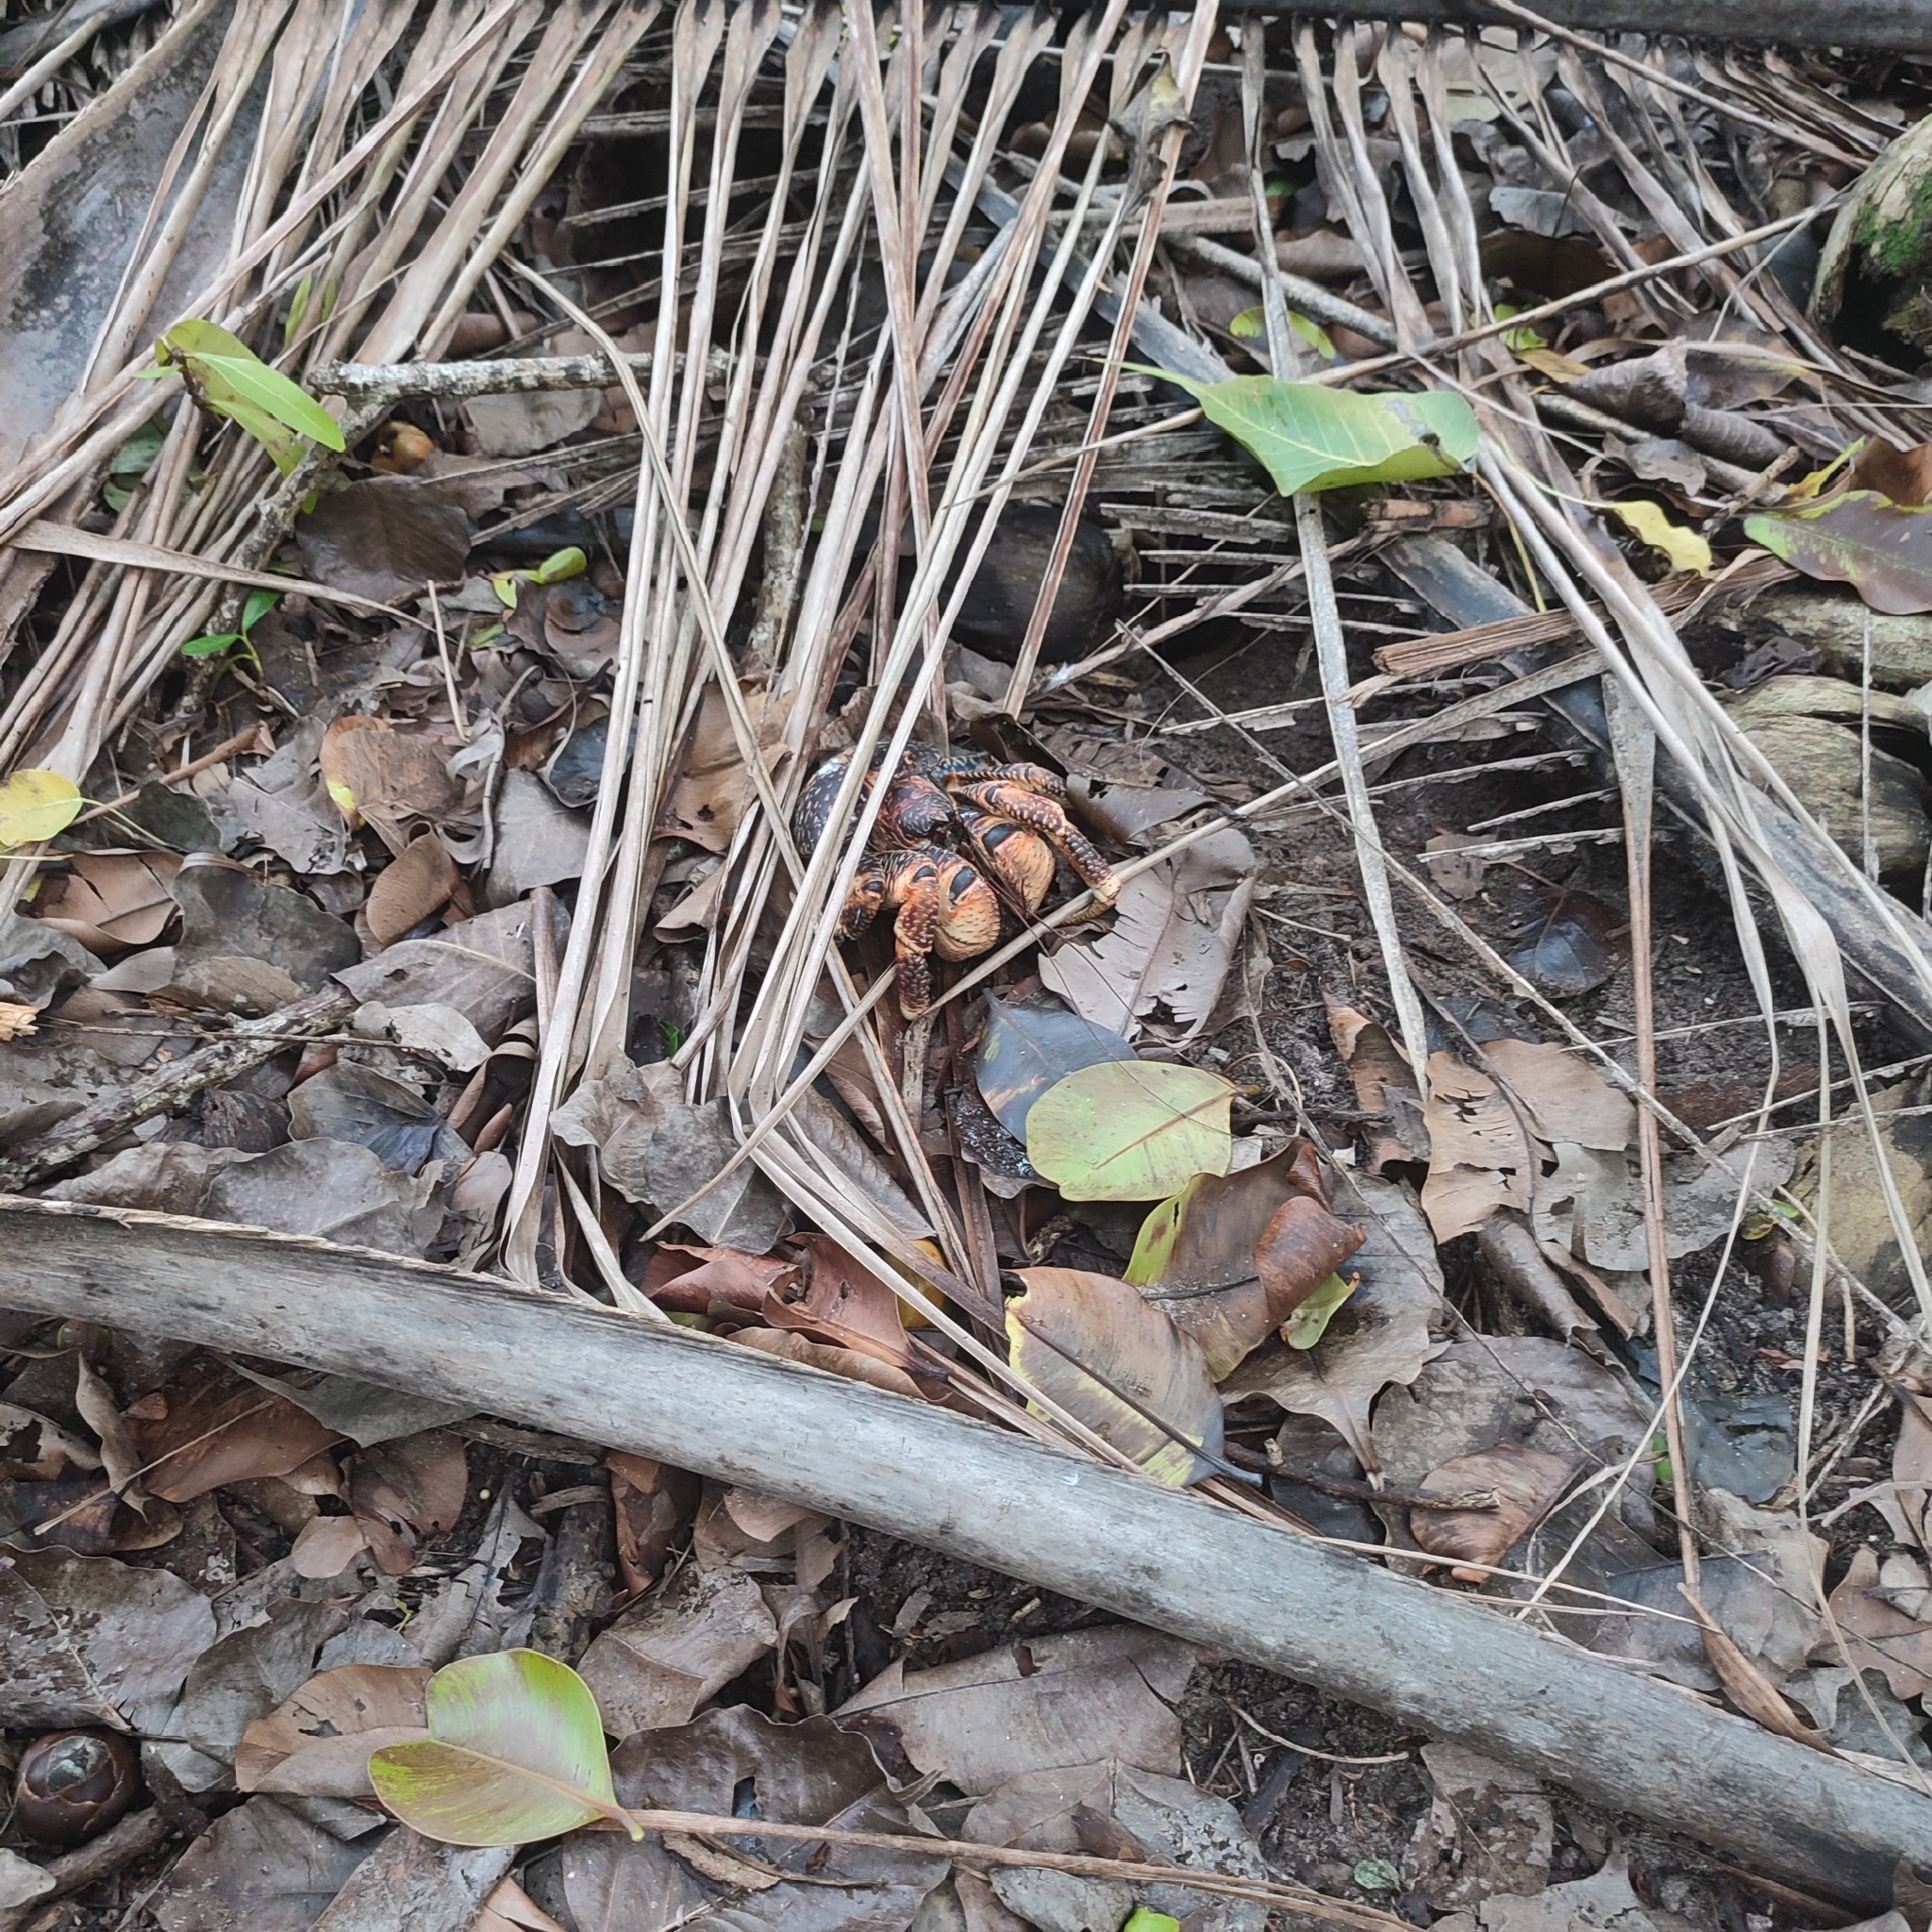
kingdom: Animalia
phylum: Arthropoda
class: Malacostraca
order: Decapoda
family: Coenobitidae
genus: Birgus
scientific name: Birgus latro
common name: Coconut crab
